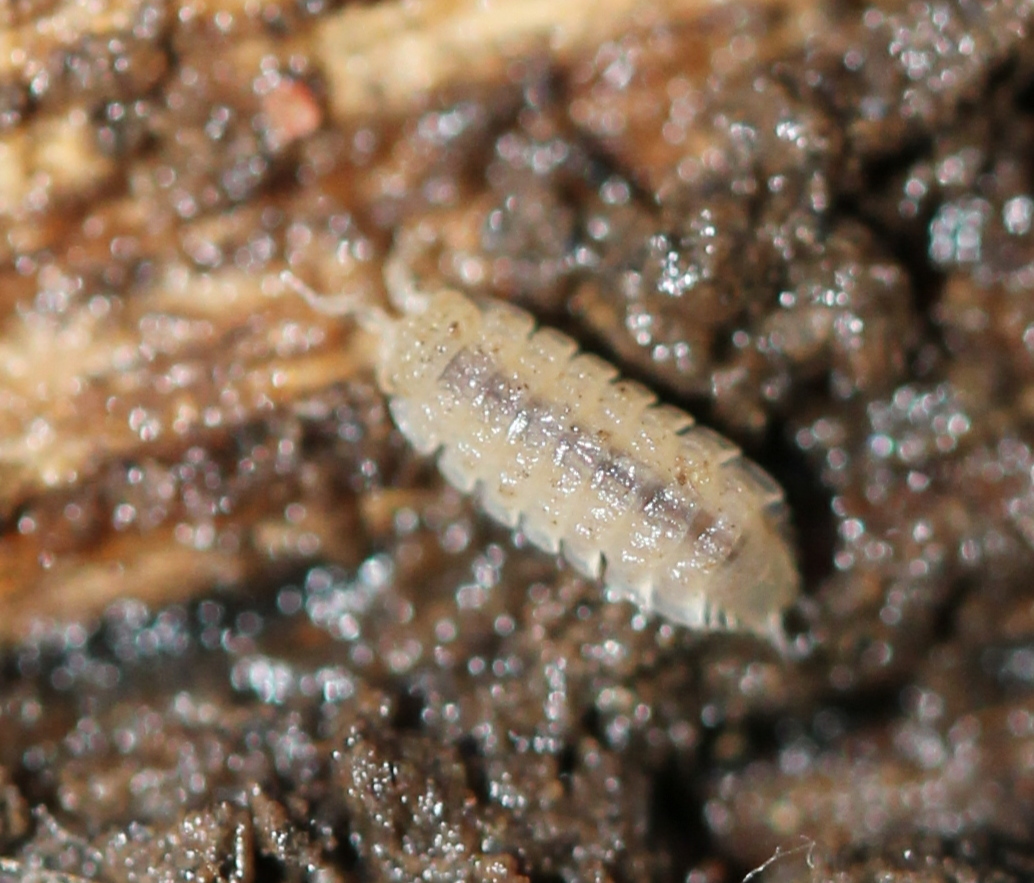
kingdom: Animalia
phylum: Arthropoda
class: Malacostraca
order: Isopoda
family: Trichoniscidae
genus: Haplophthalmus
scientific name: Haplophthalmus danicus
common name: Pillbug
